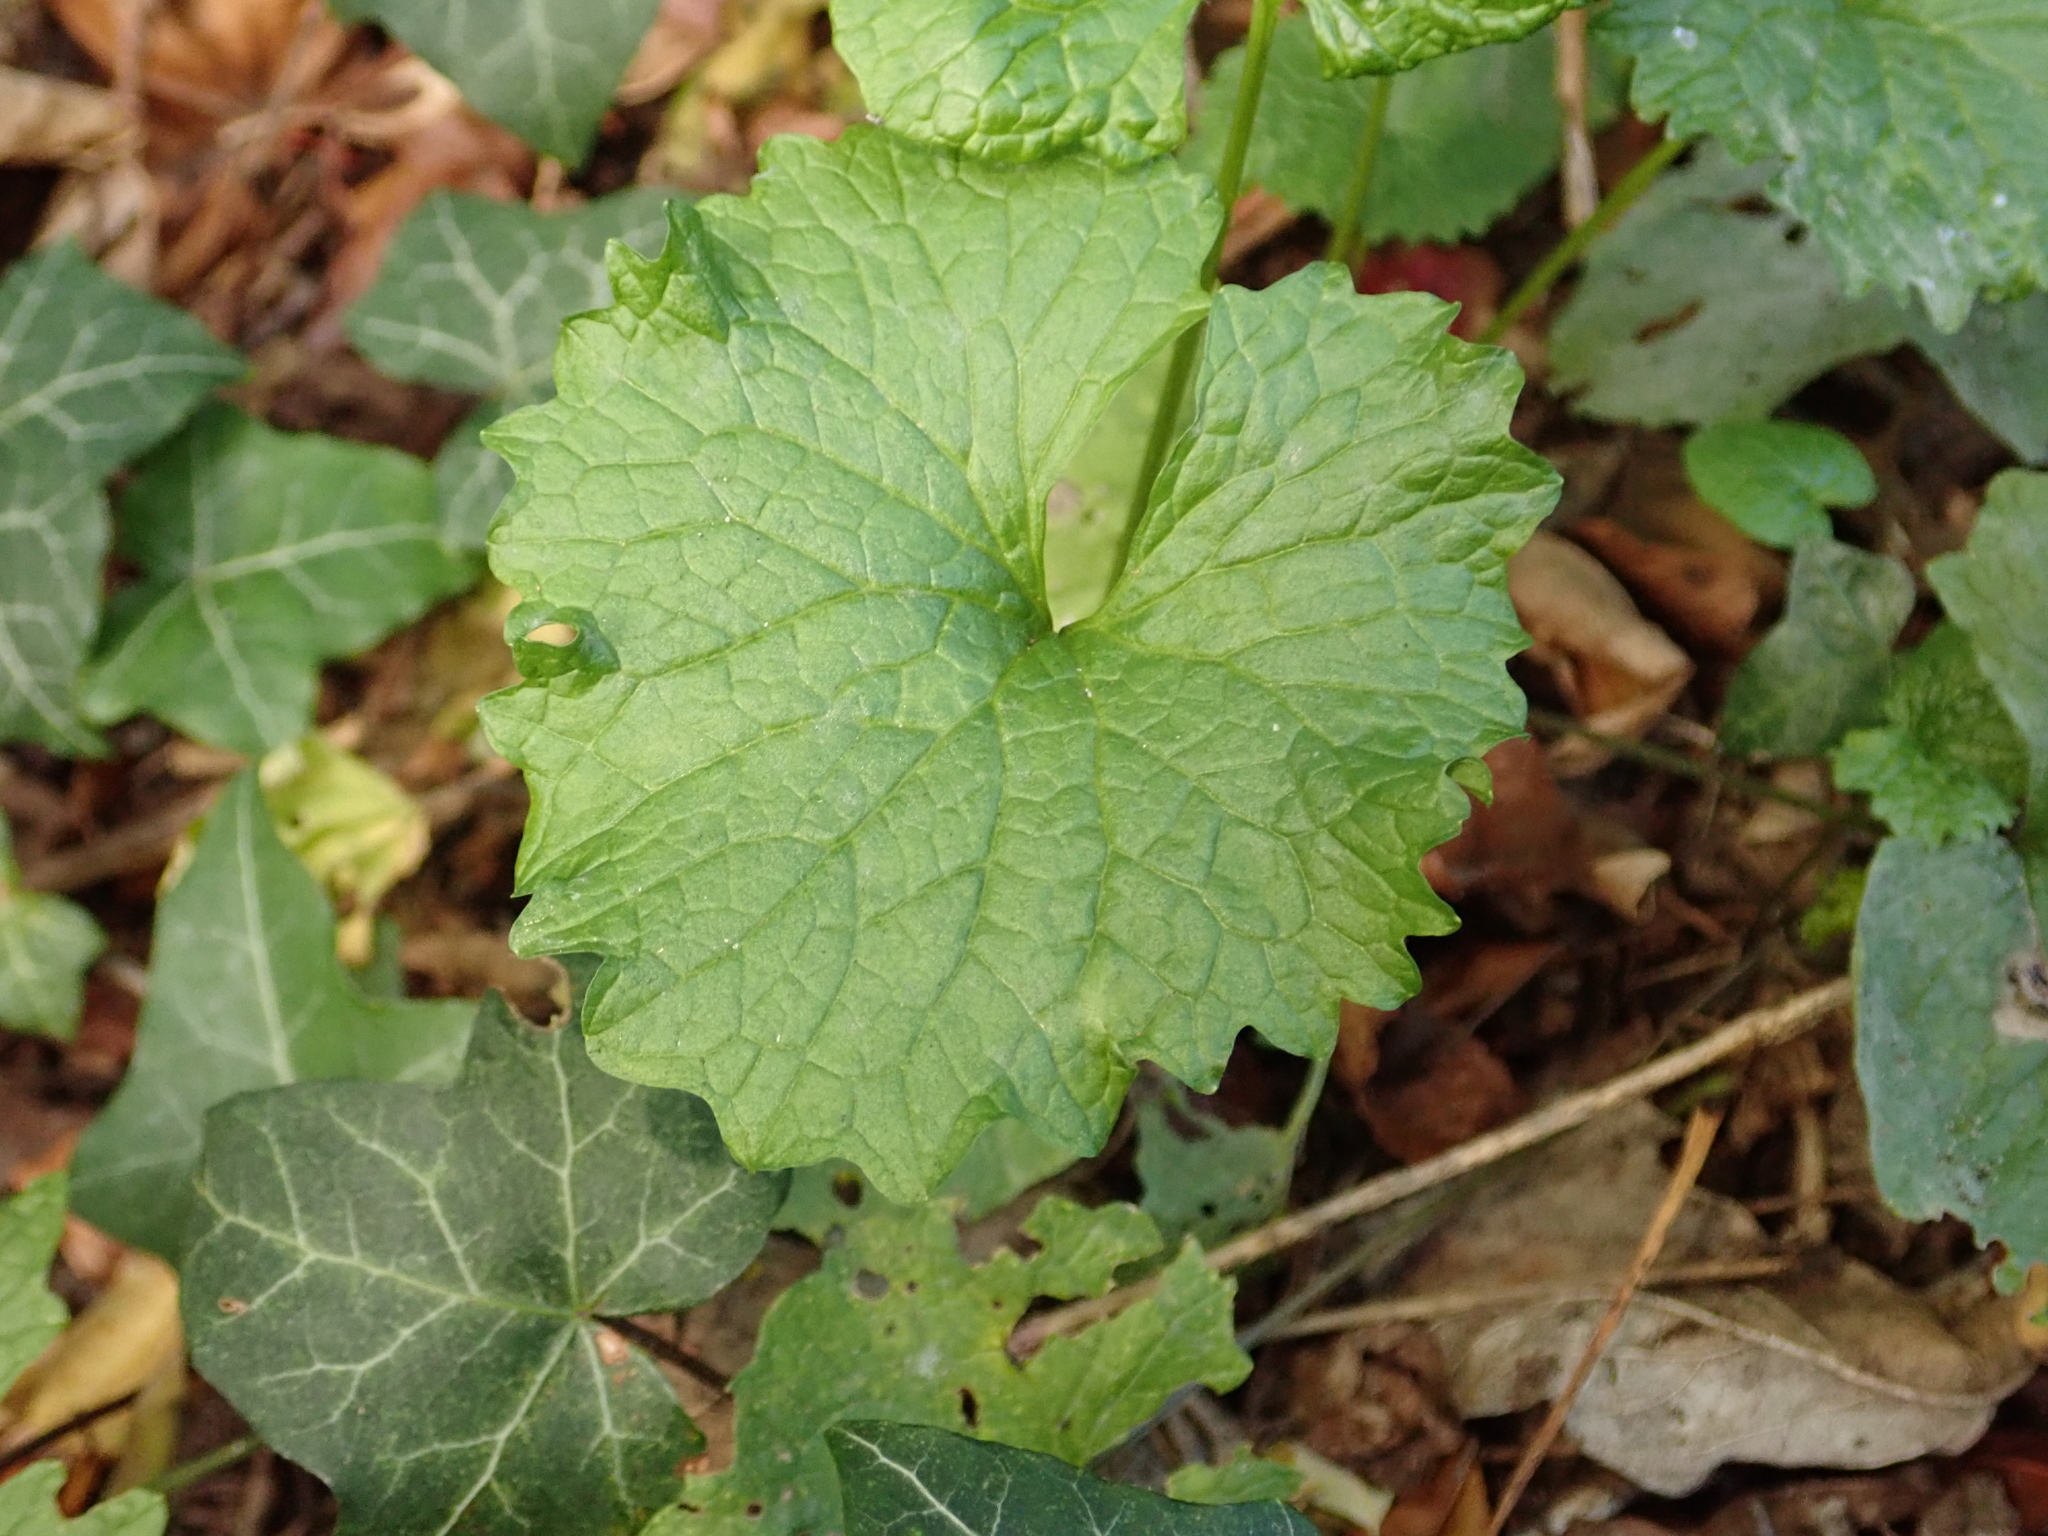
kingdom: Plantae
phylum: Tracheophyta
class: Magnoliopsida
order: Brassicales
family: Brassicaceae
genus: Alliaria
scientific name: Alliaria petiolata
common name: Garlic mustard
